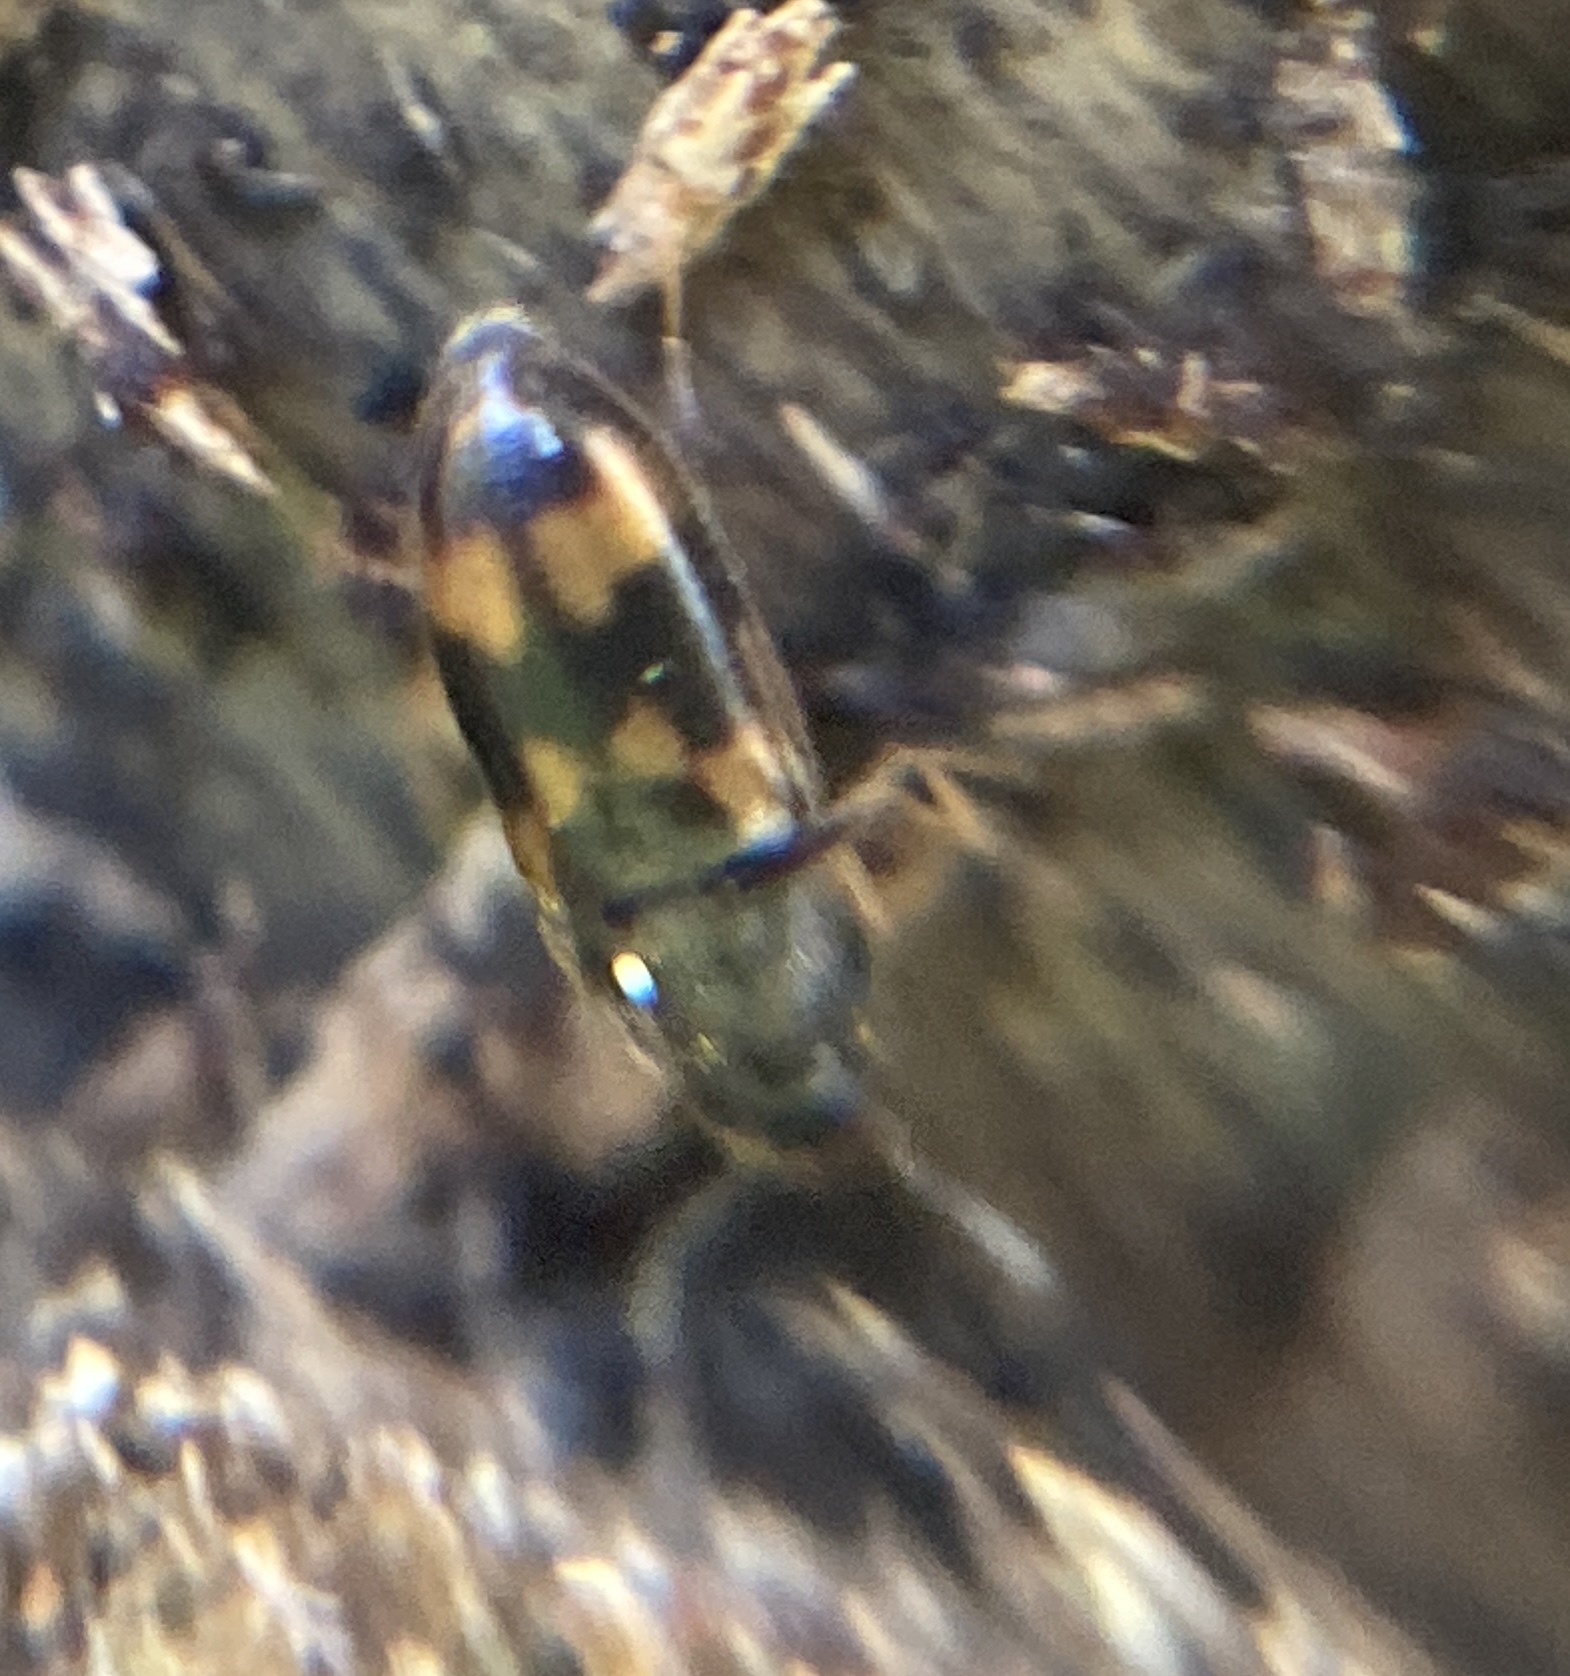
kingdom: Animalia
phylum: Arthropoda
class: Insecta
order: Coleoptera
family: Mycetophagidae
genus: Litargus
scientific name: Litargus connexus
